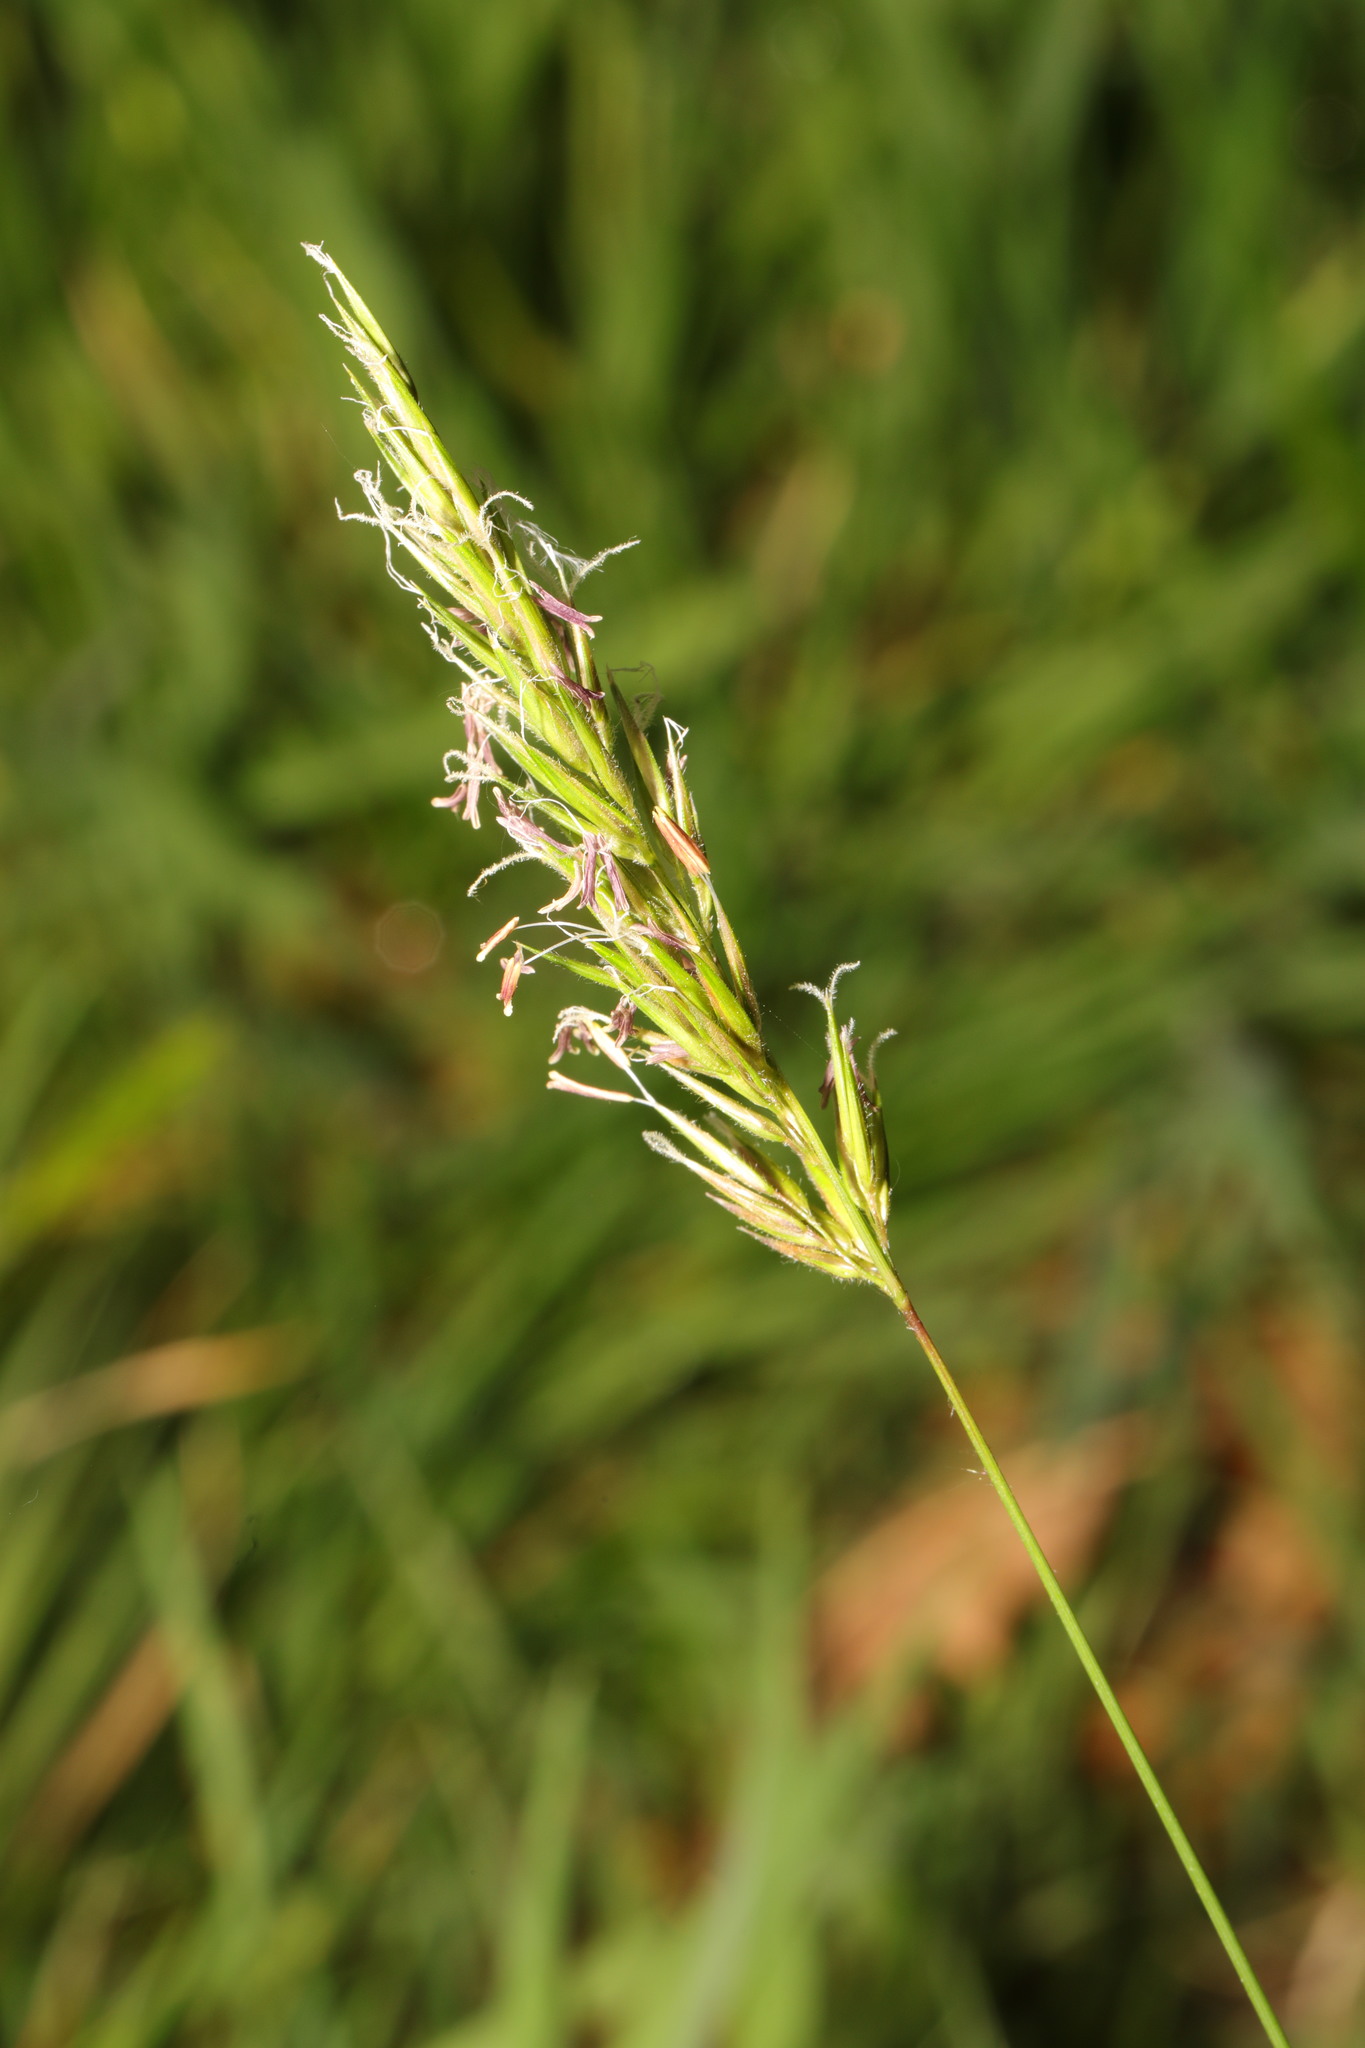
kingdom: Plantae
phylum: Tracheophyta
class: Liliopsida
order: Poales
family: Poaceae
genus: Anthoxanthum
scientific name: Anthoxanthum odoratum
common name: Sweet vernalgrass
